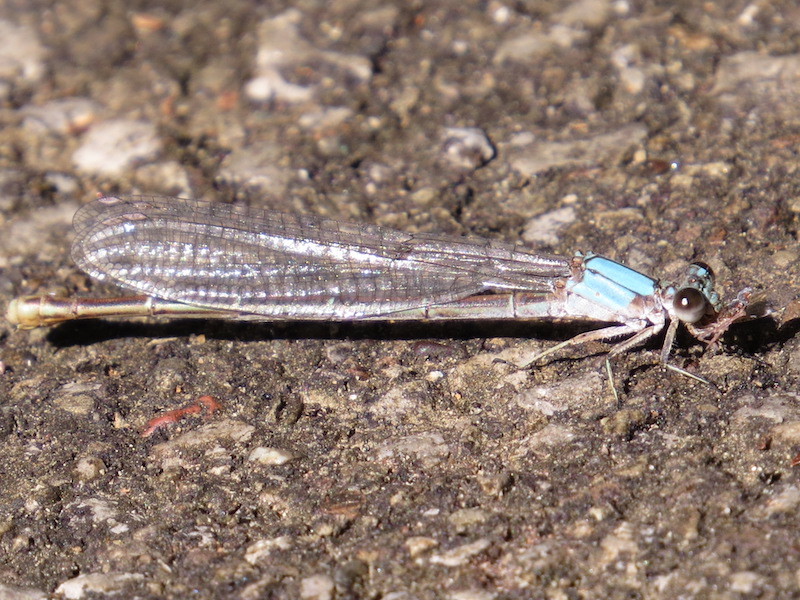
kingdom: Animalia
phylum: Arthropoda
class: Insecta
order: Odonata
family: Coenagrionidae
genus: Argia
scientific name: Argia moesta
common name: Powdered dancer
